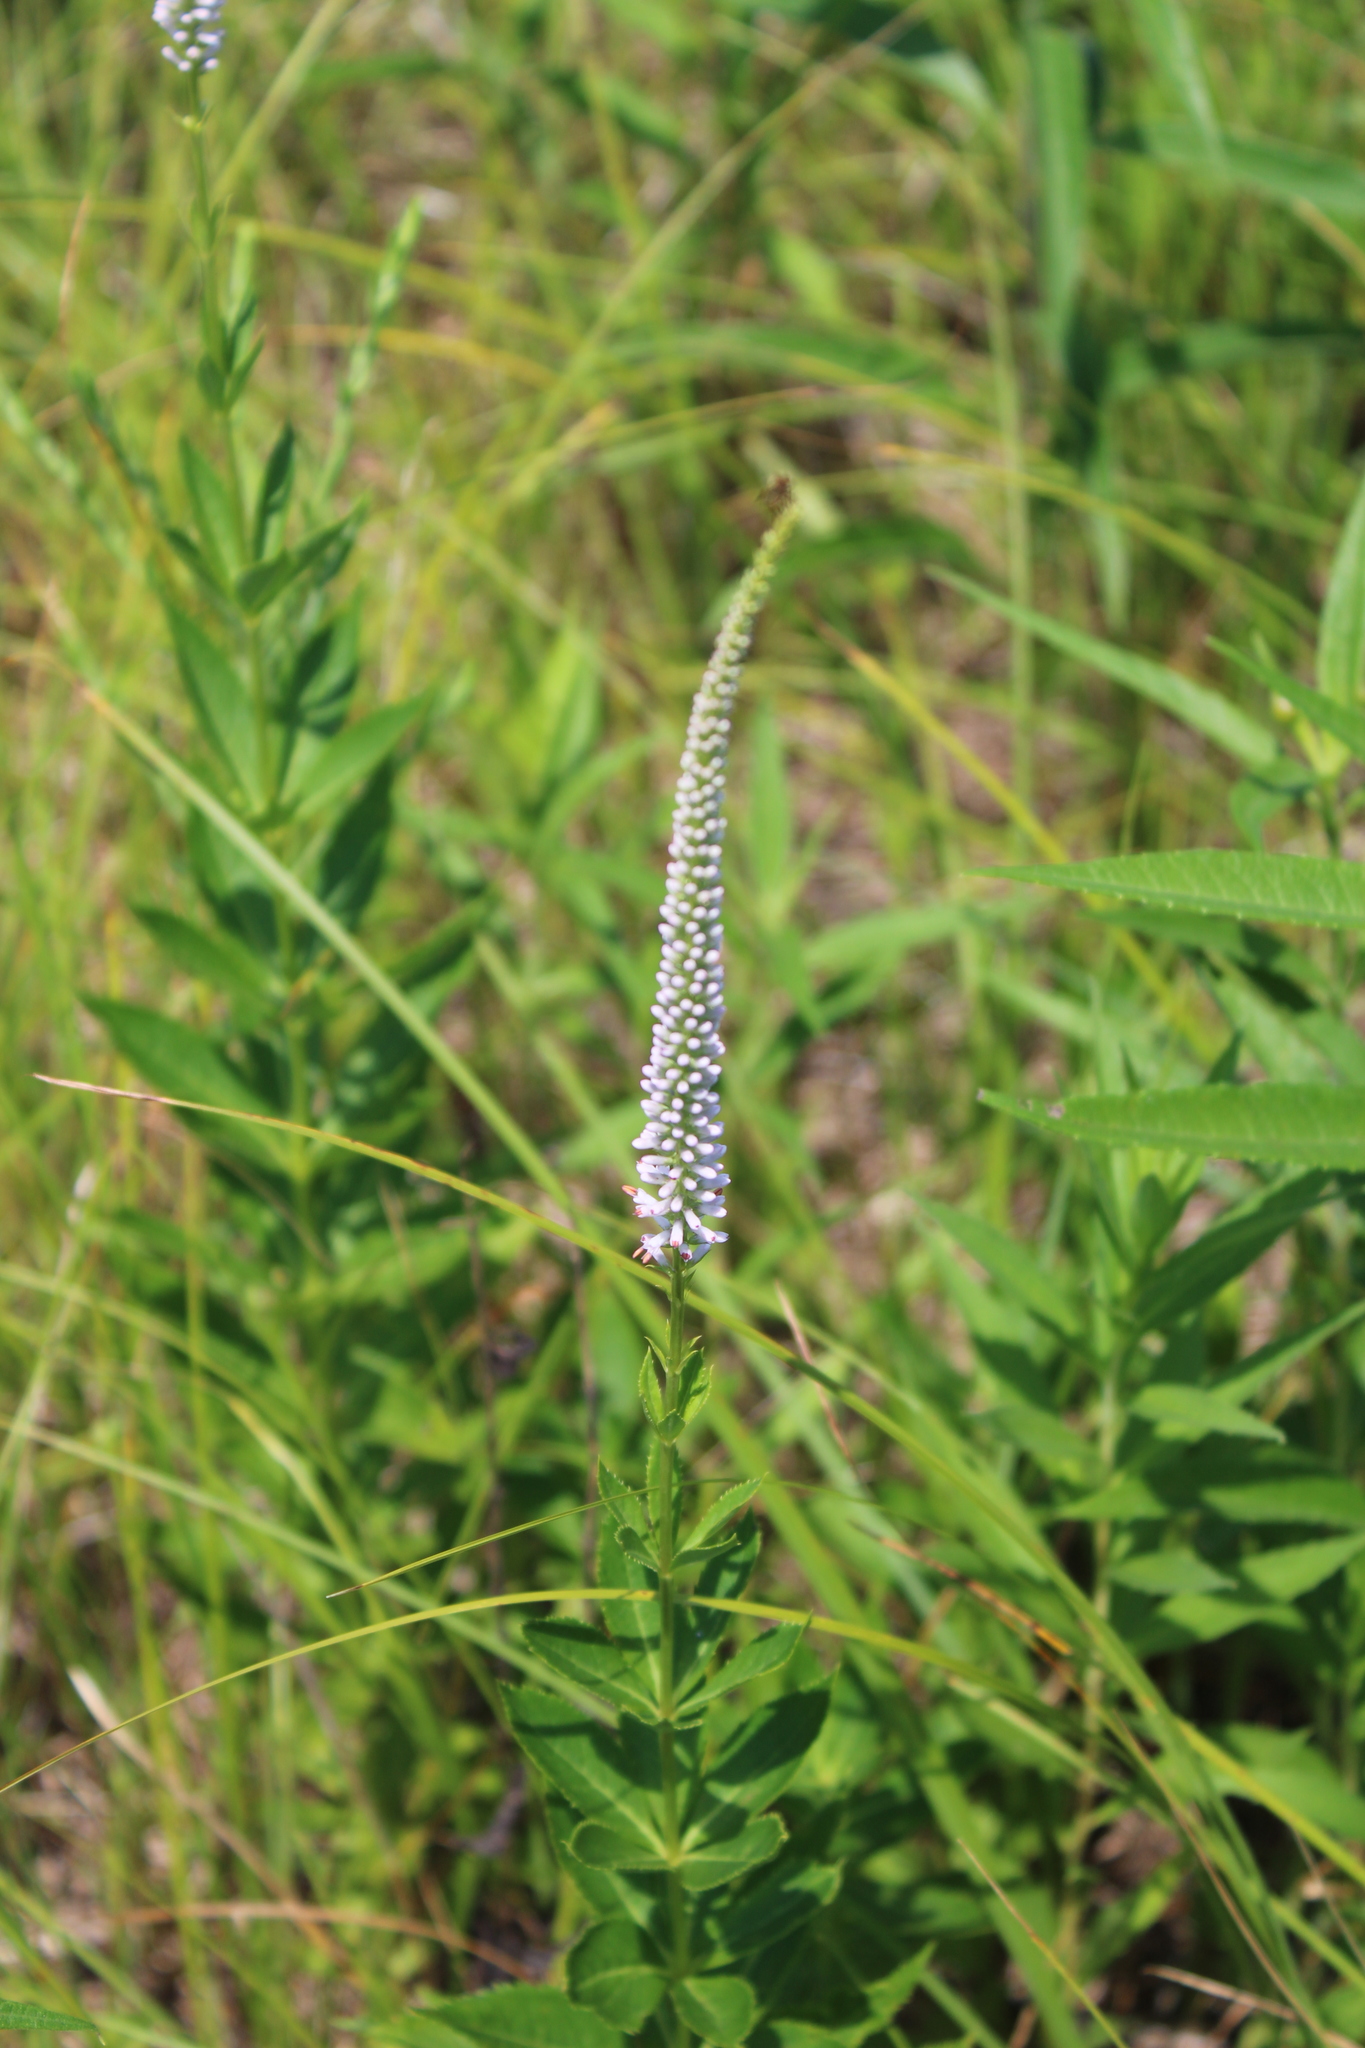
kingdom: Plantae
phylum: Tracheophyta
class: Magnoliopsida
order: Lamiales
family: Plantaginaceae
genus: Veronicastrum
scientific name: Veronicastrum virginicum
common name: Blackroot
